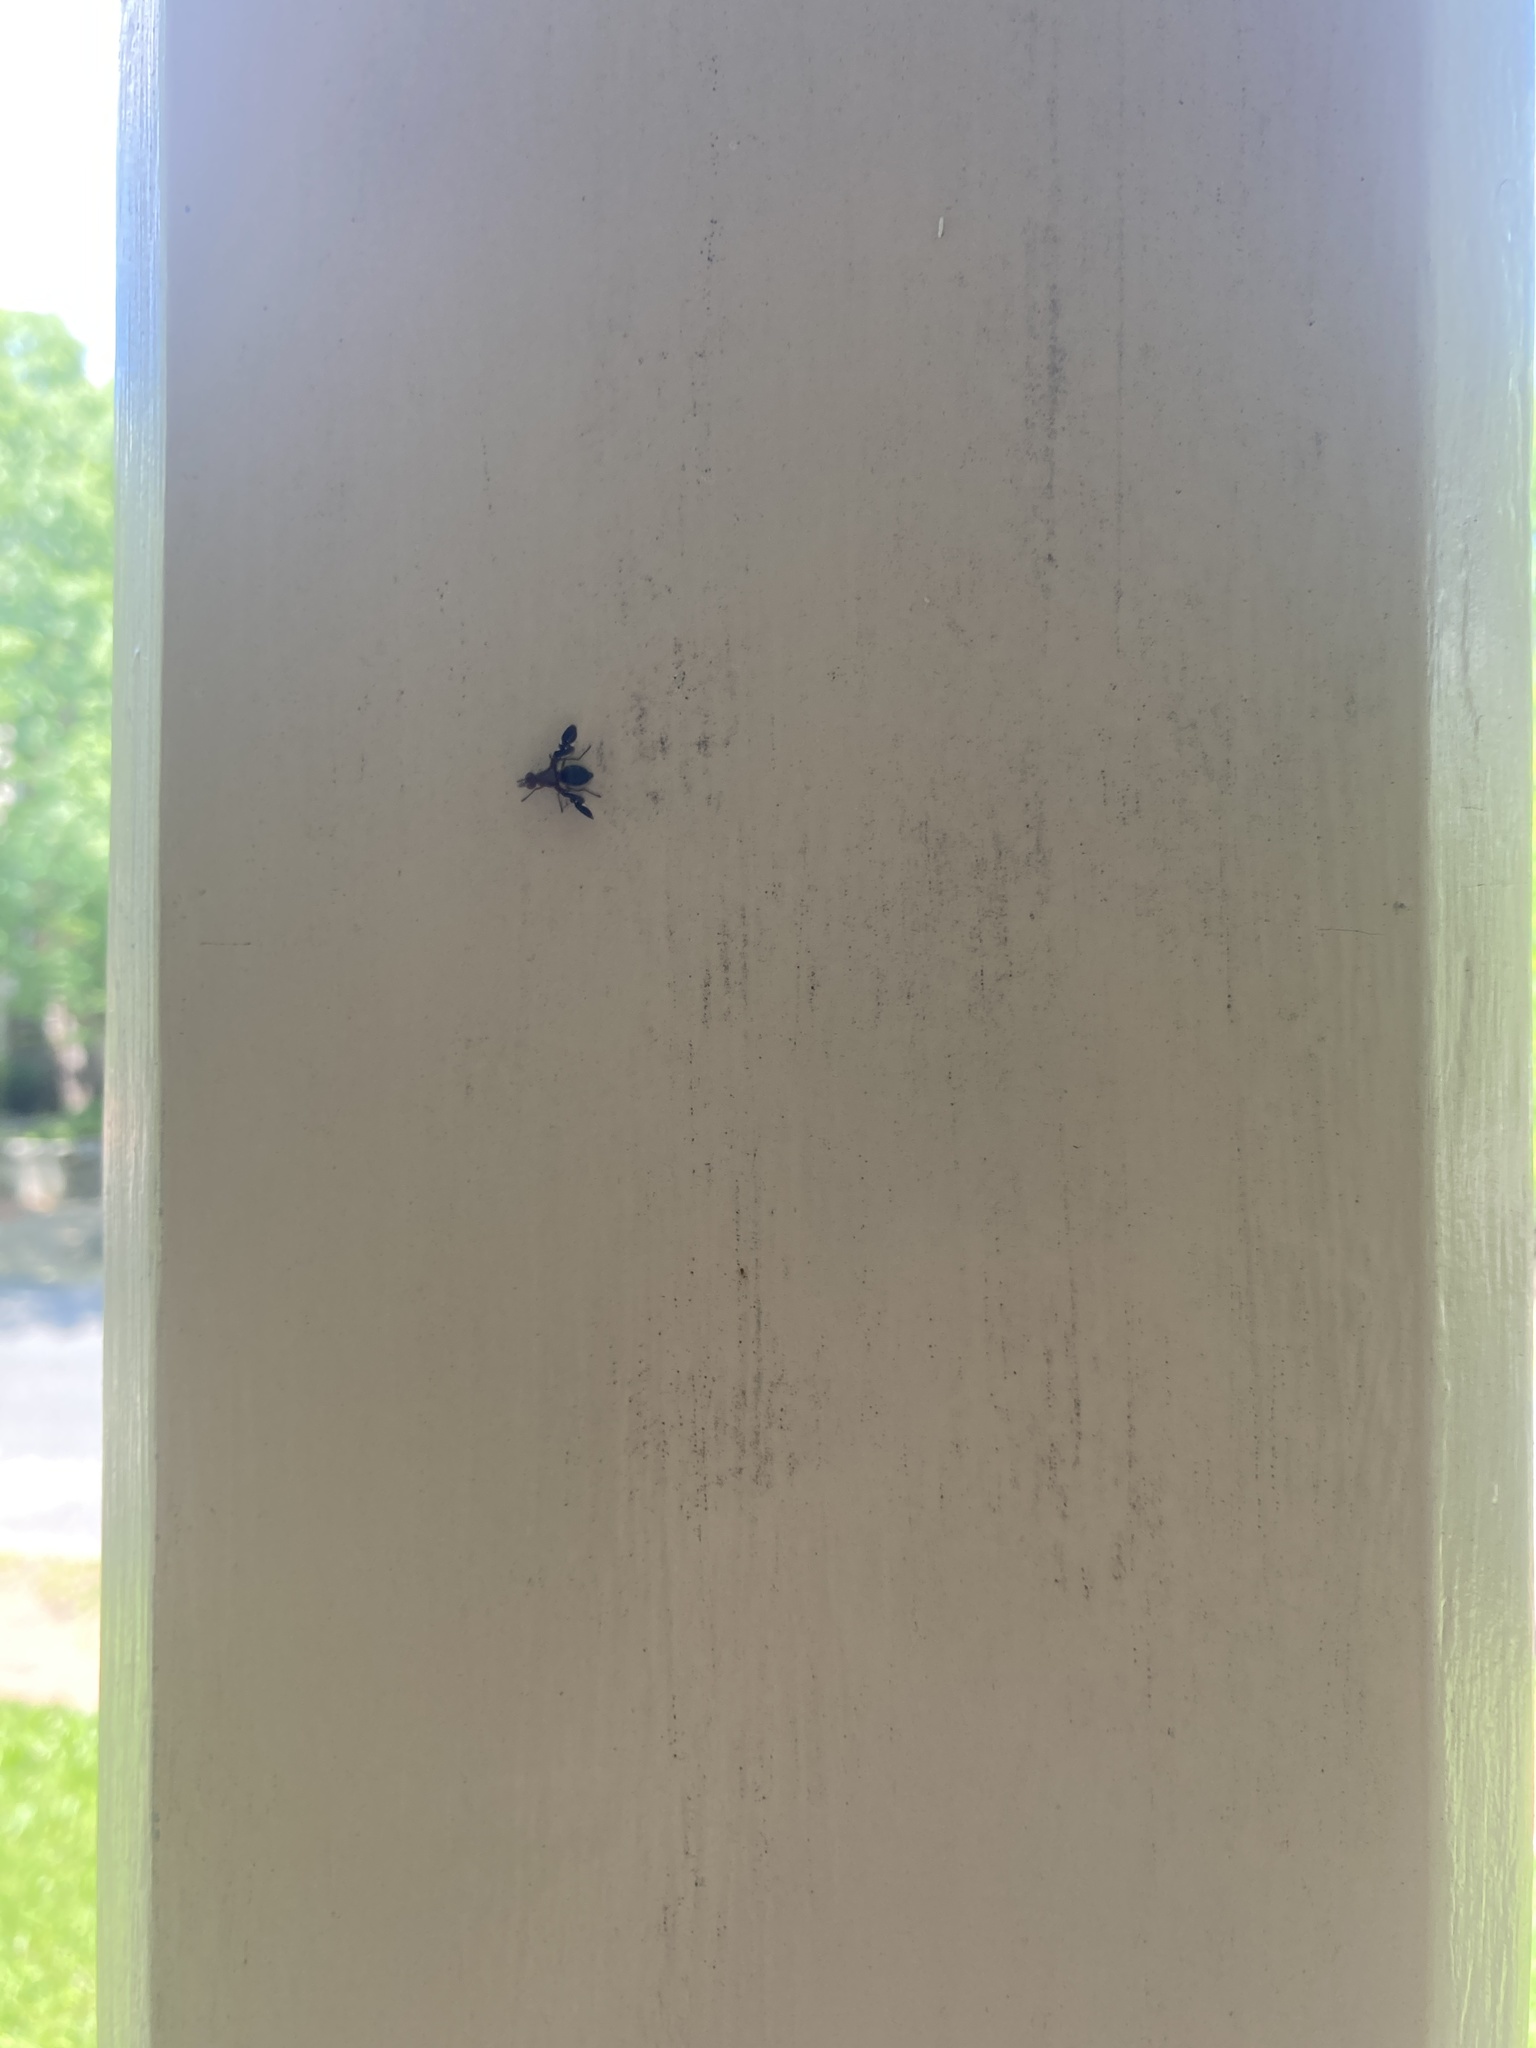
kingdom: Animalia
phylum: Arthropoda
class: Insecta
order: Diptera
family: Ulidiidae
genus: Delphinia
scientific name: Delphinia picta
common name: Common picture-winged fly
